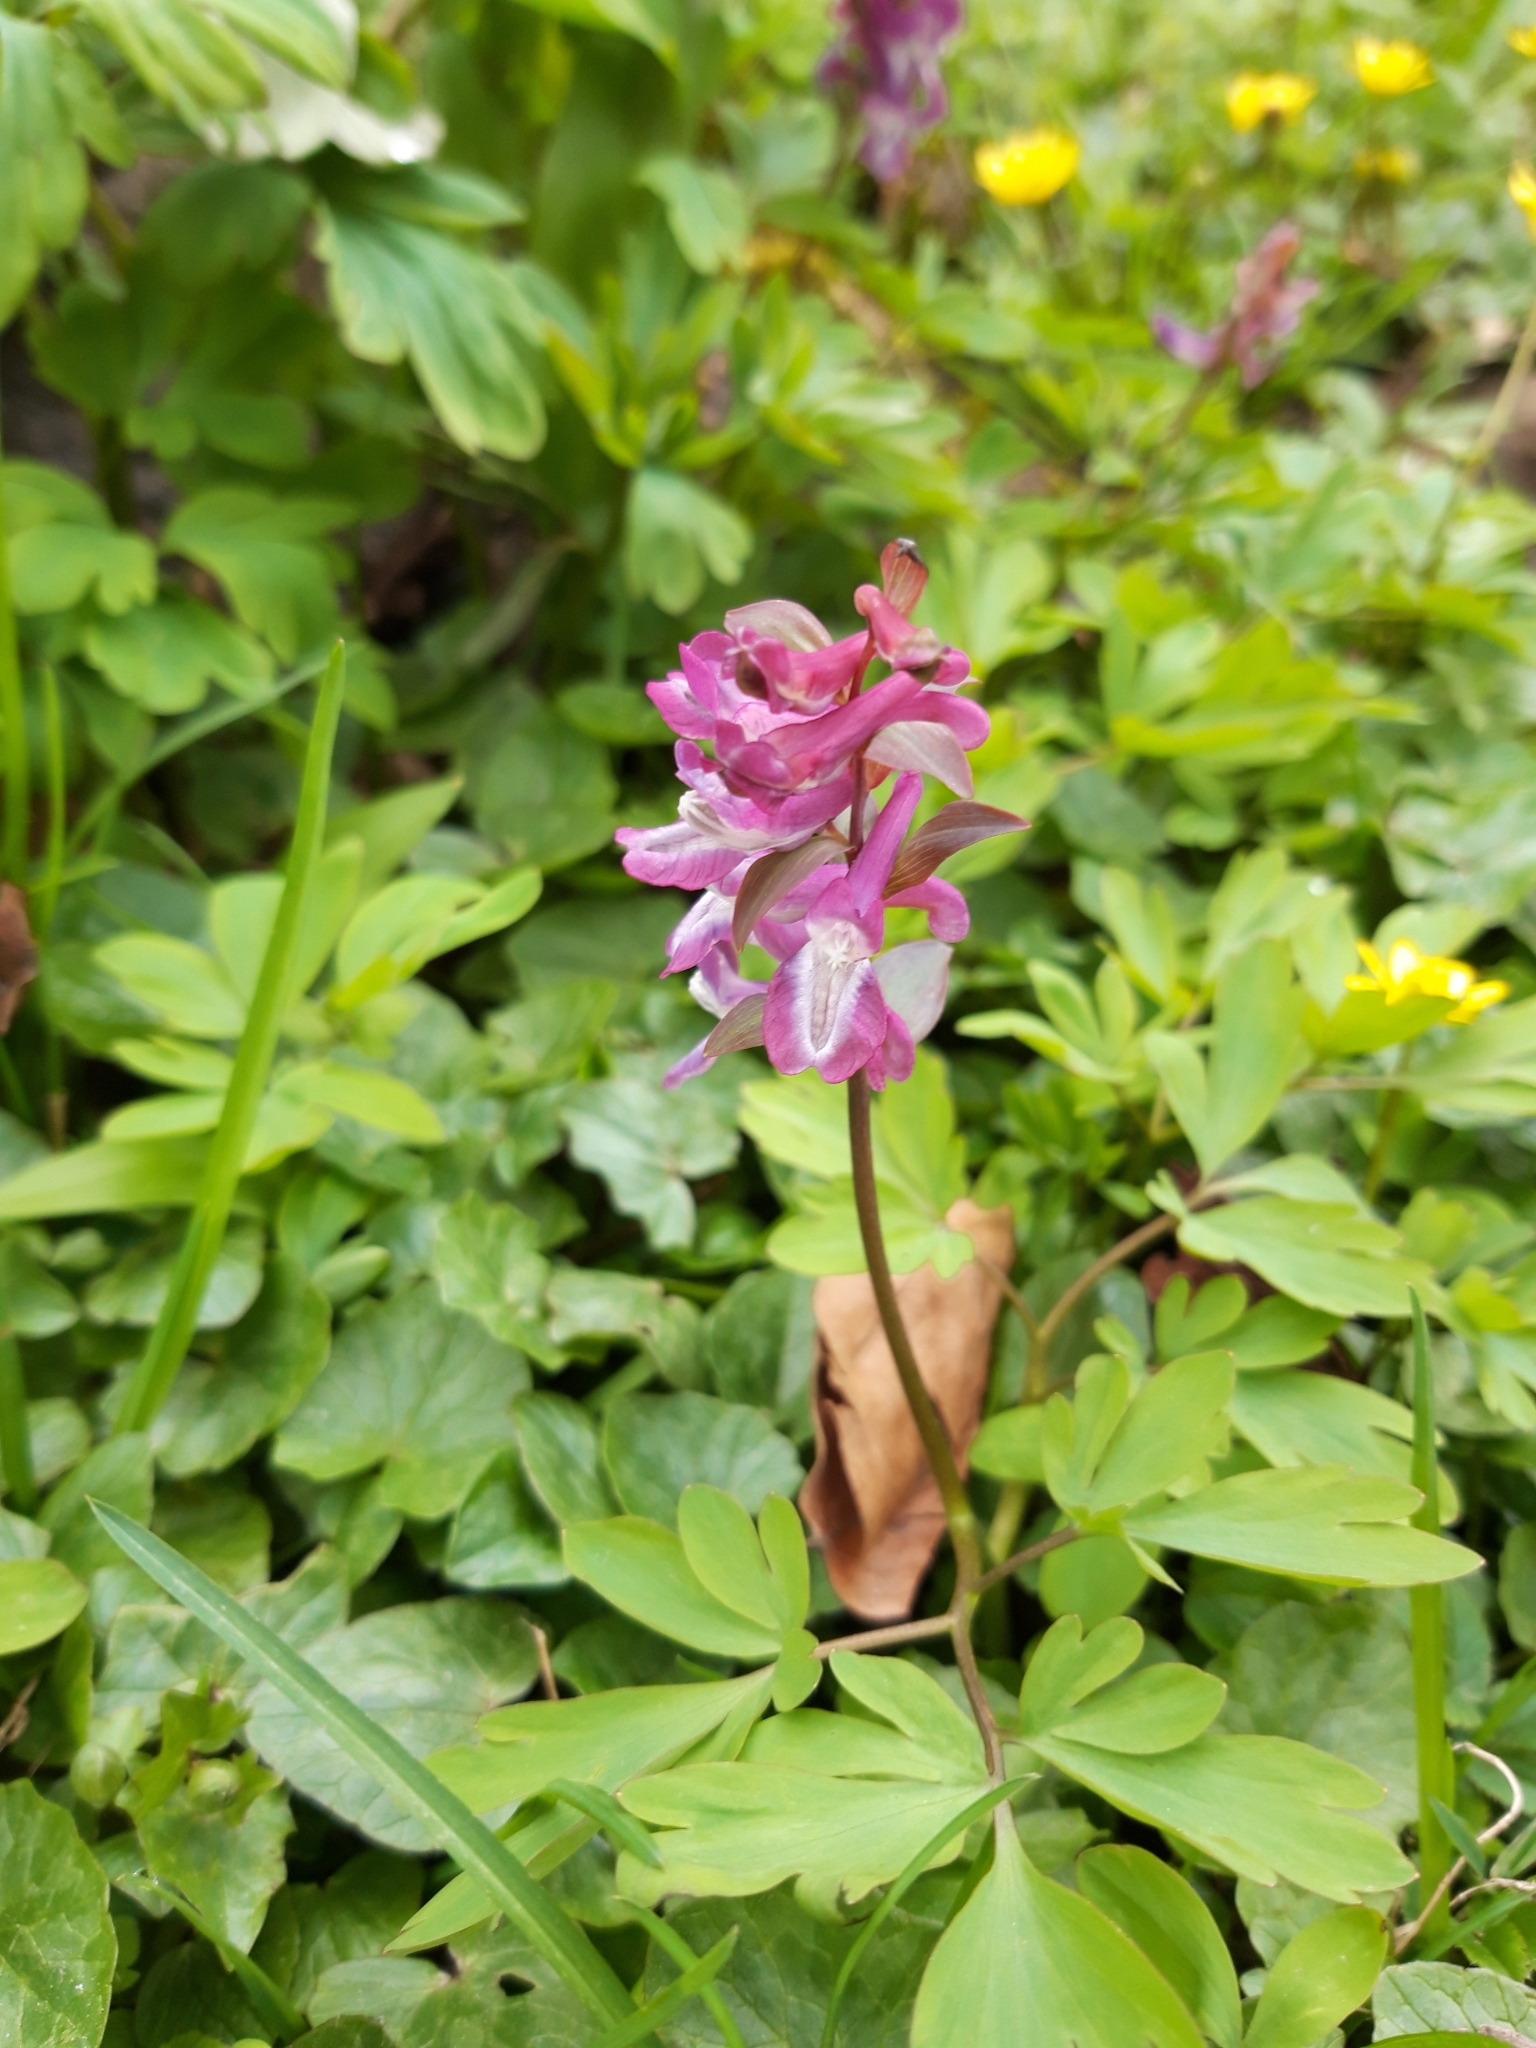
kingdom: Plantae
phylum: Tracheophyta
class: Magnoliopsida
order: Ranunculales
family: Papaveraceae
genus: Corydalis
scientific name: Corydalis cava
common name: Hollowroot
